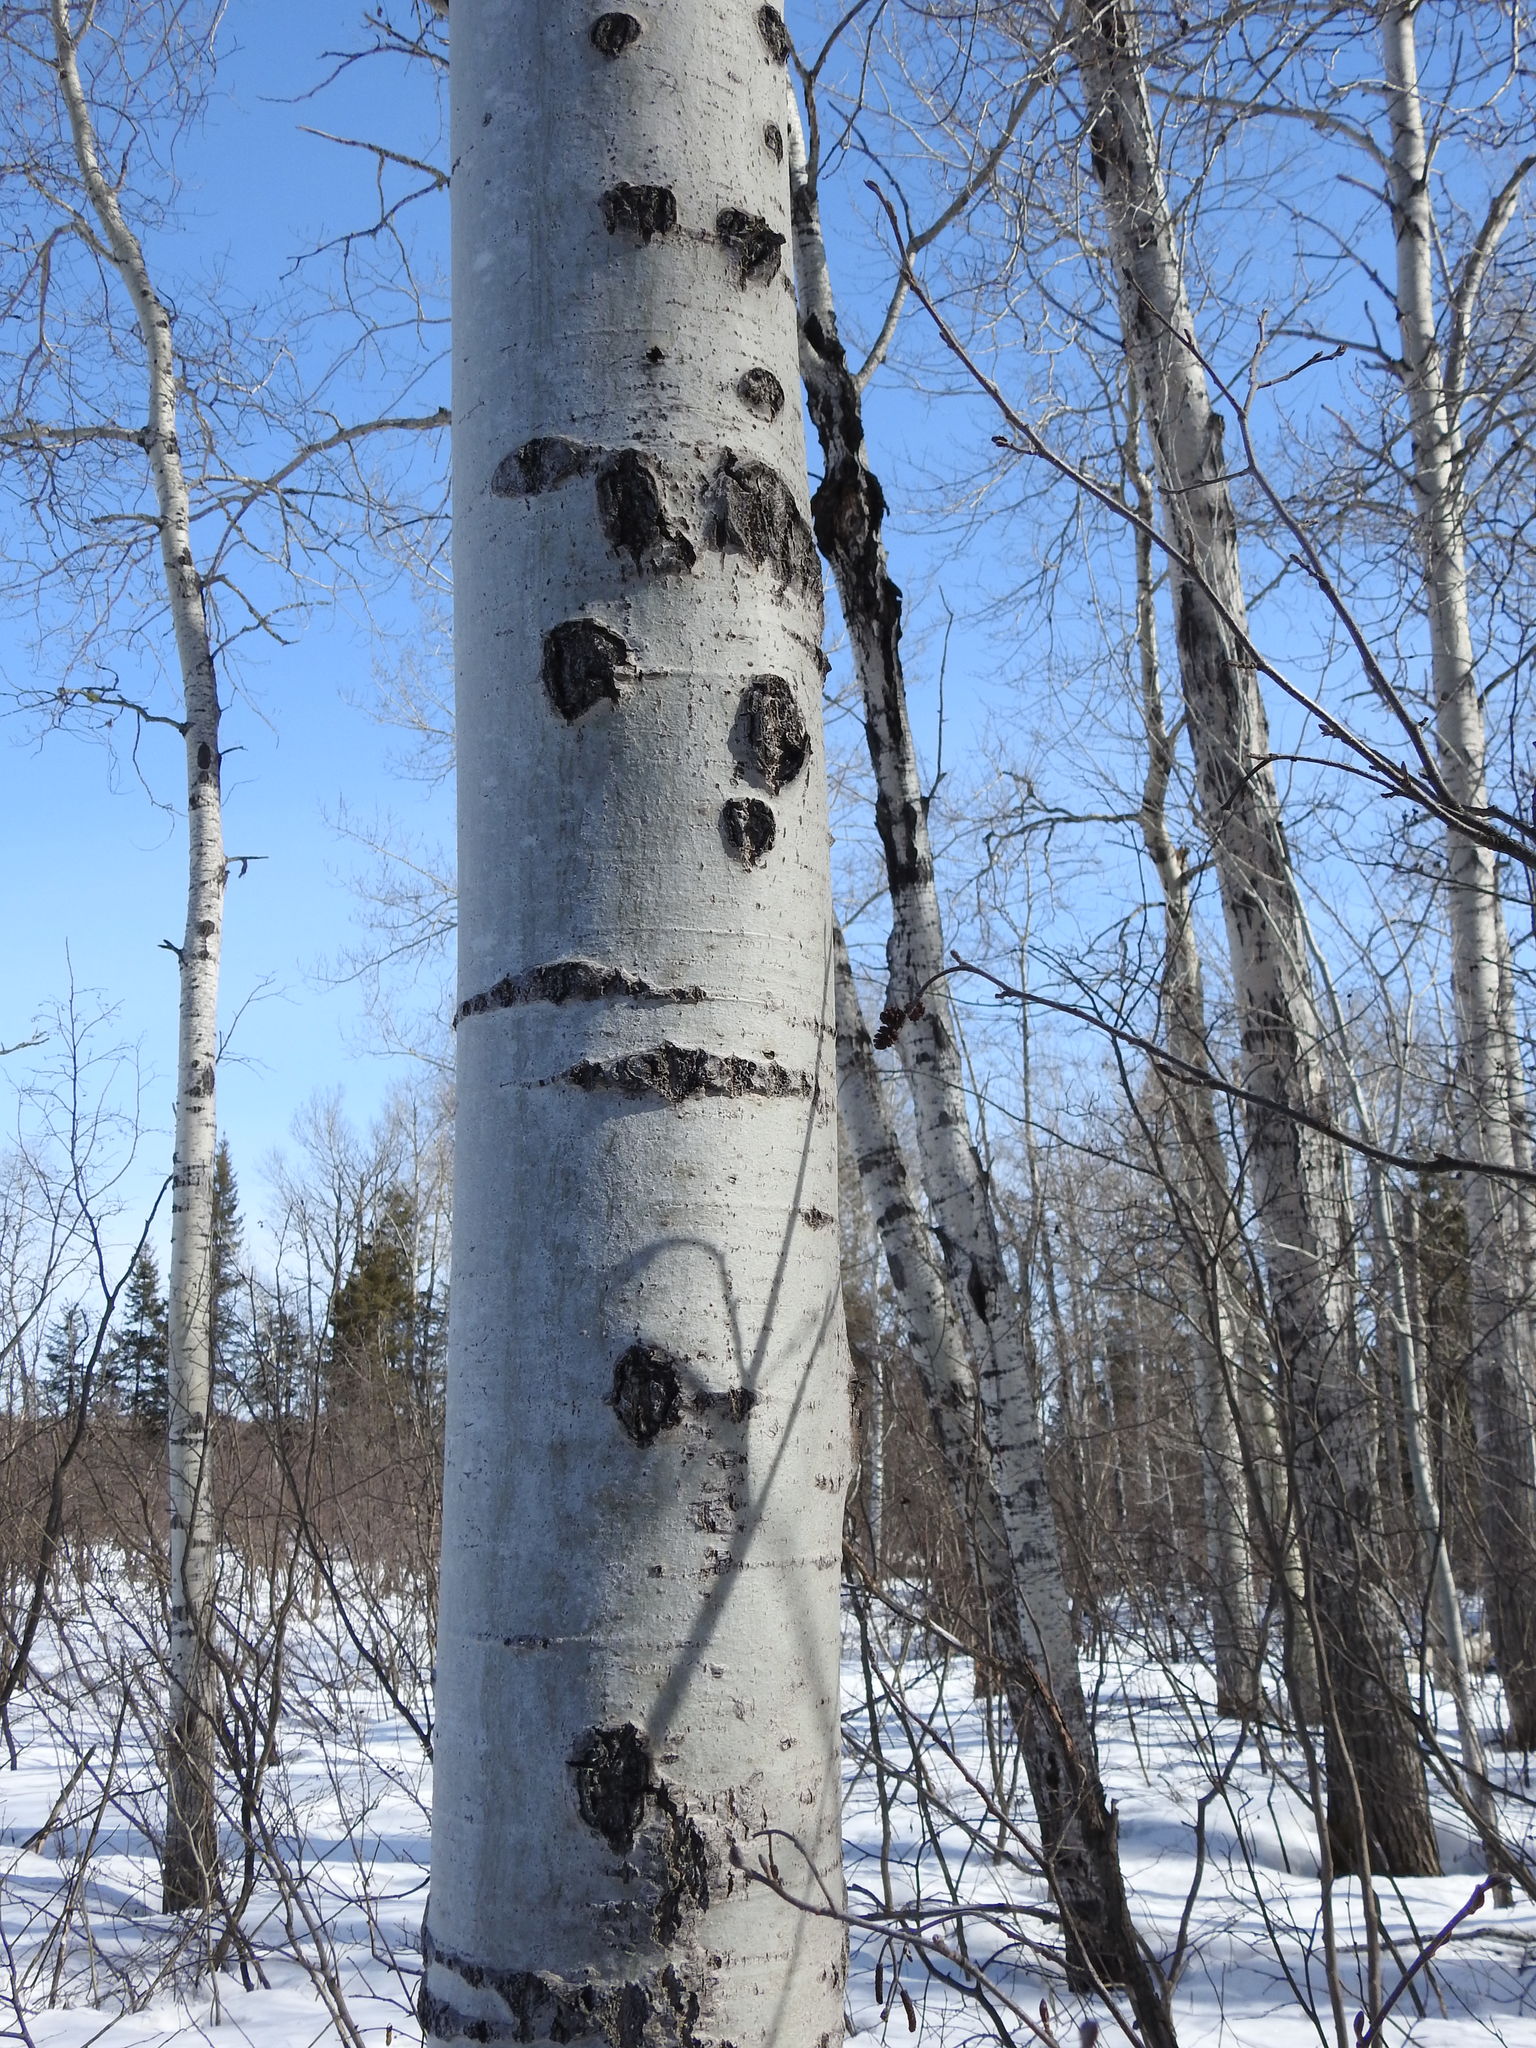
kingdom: Plantae
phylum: Tracheophyta
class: Magnoliopsida
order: Malpighiales
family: Salicaceae
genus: Populus
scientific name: Populus tremuloides
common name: Quaking aspen
